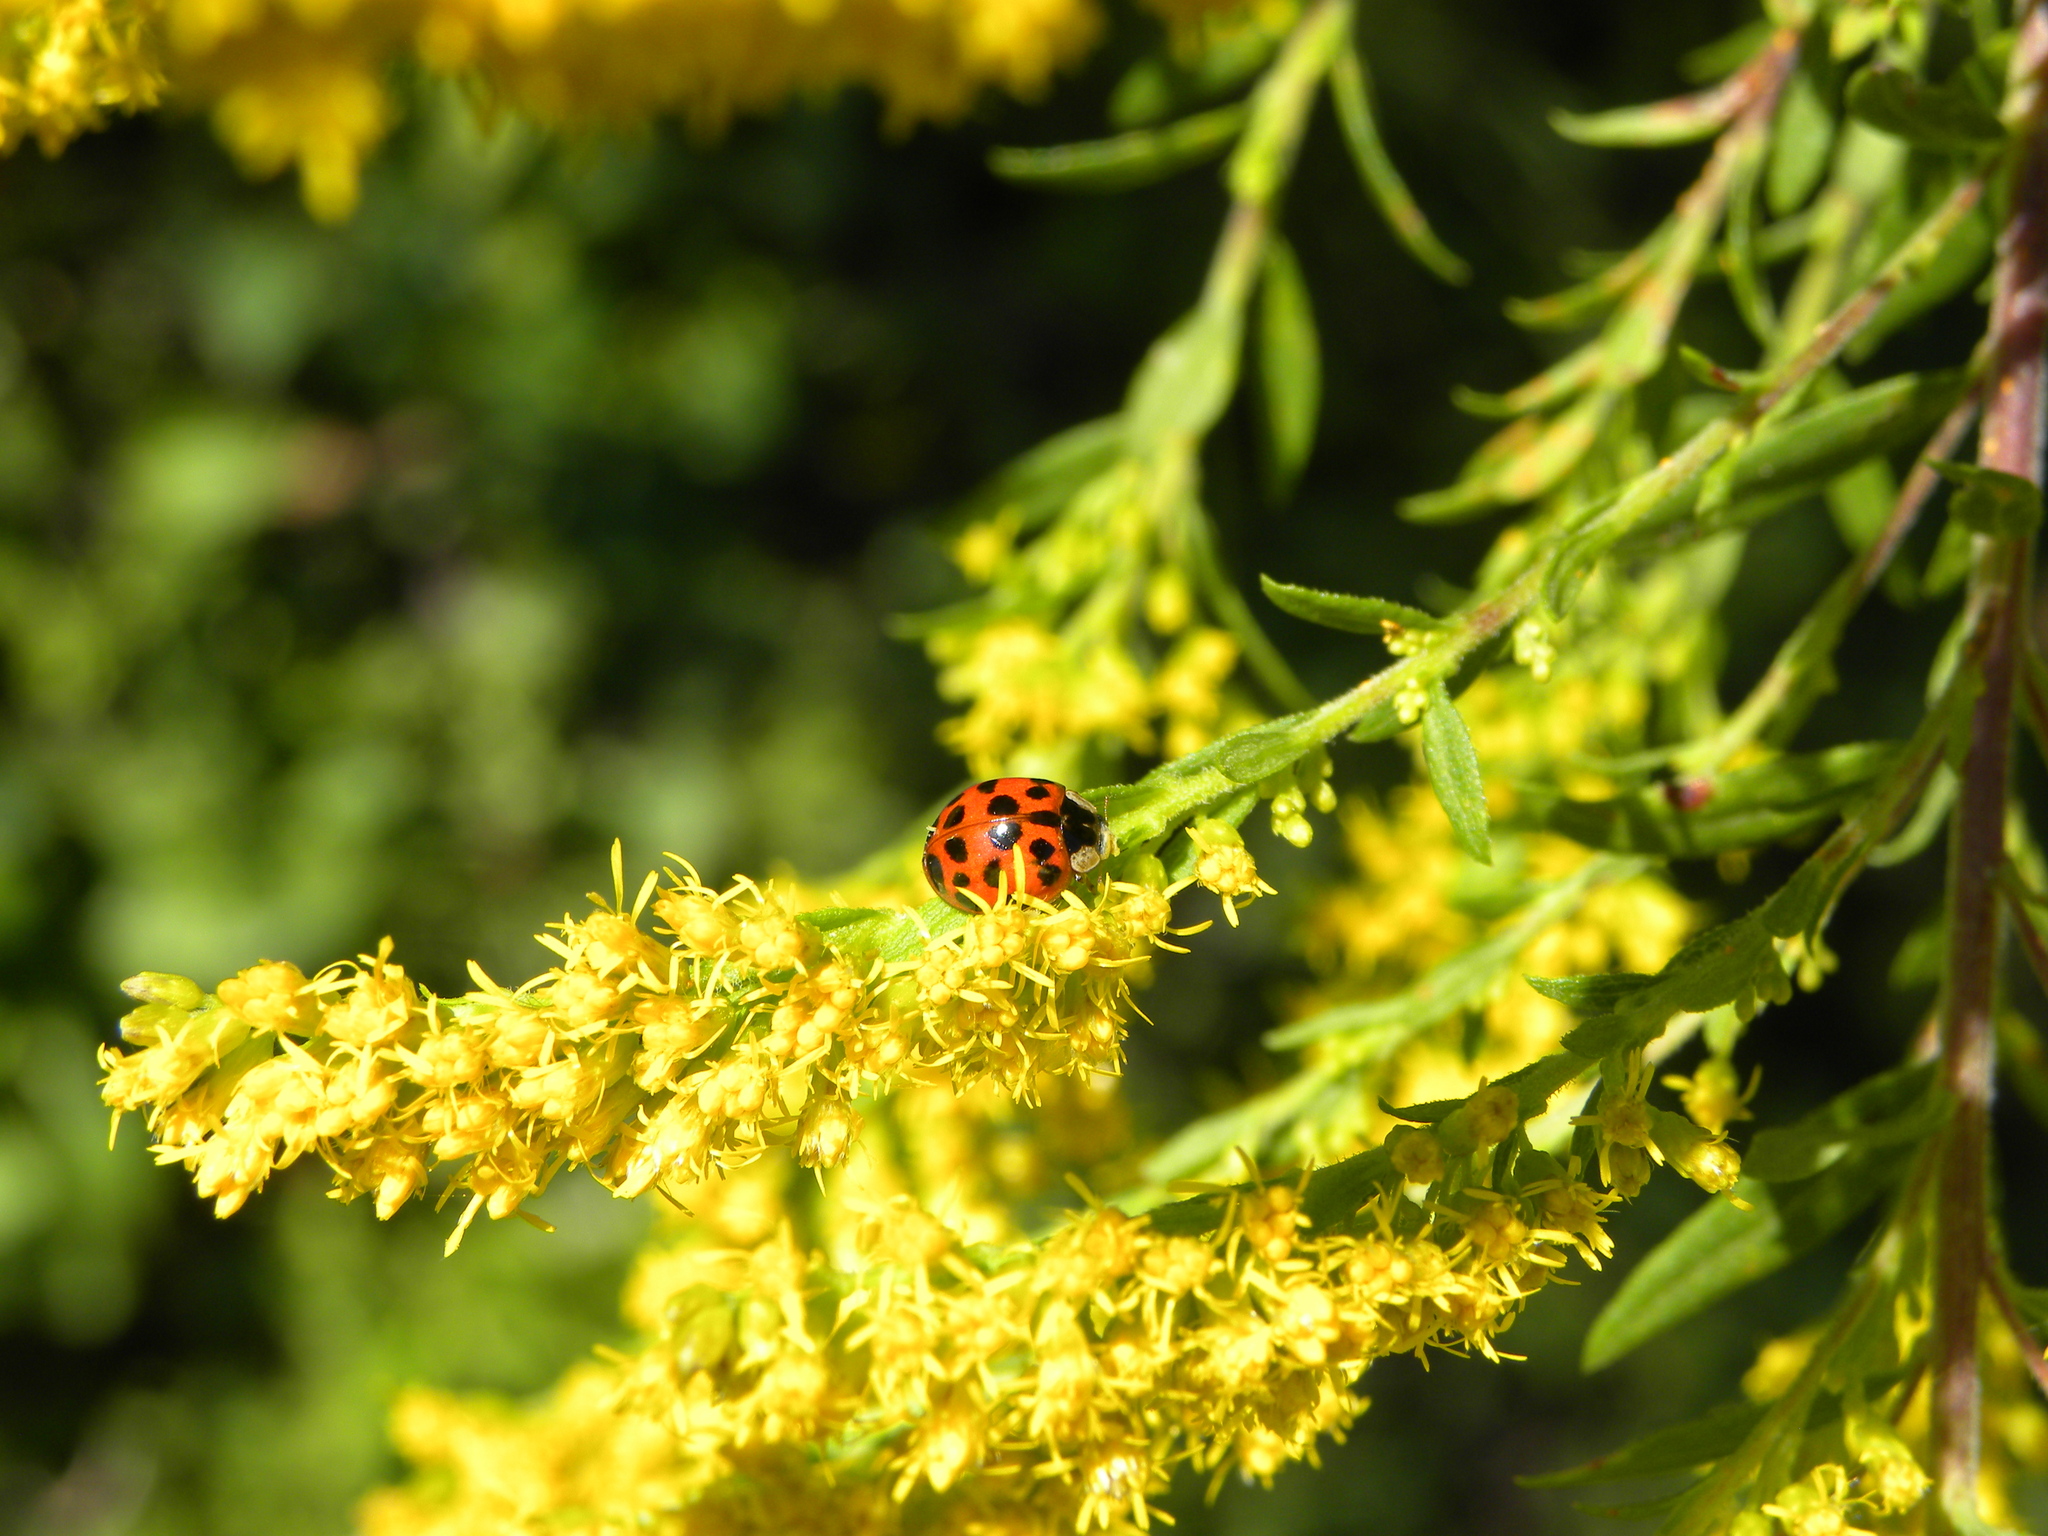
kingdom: Fungi
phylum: Ascomycota
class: Laboulbeniomycetes
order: Laboulbeniales
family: Laboulbeniaceae
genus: Hesperomyces
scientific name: Hesperomyces harmoniae
